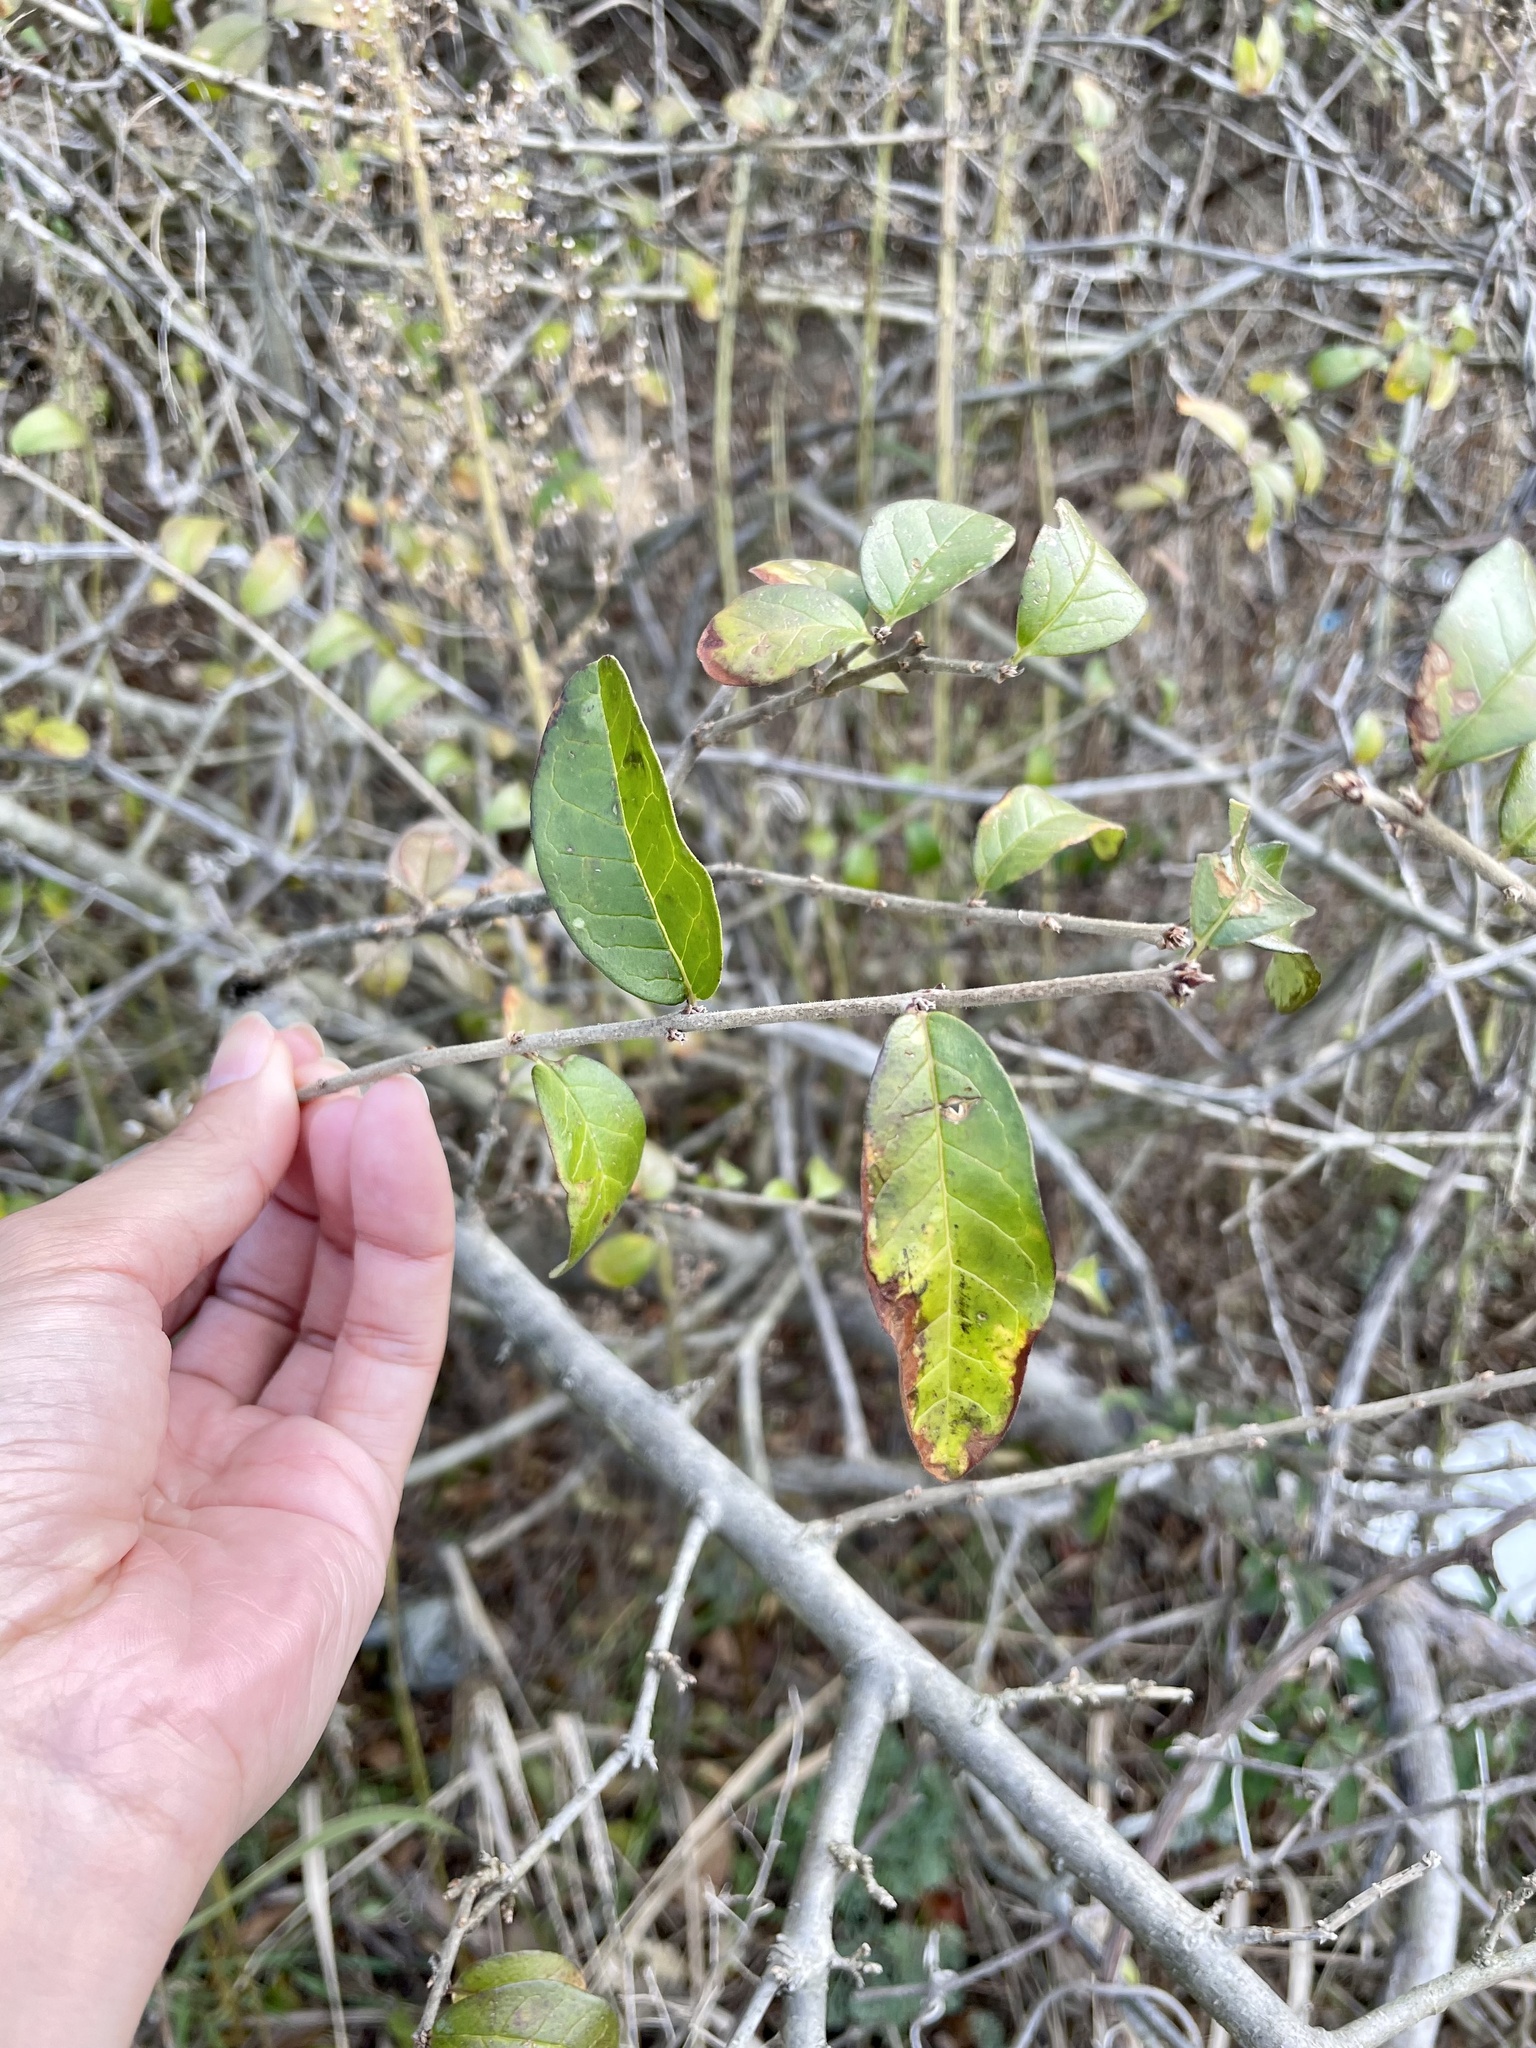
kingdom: Plantae
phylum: Tracheophyta
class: Magnoliopsida
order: Lamiales
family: Oleaceae
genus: Ligustrum
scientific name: Ligustrum obtusifolium
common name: Border privet
